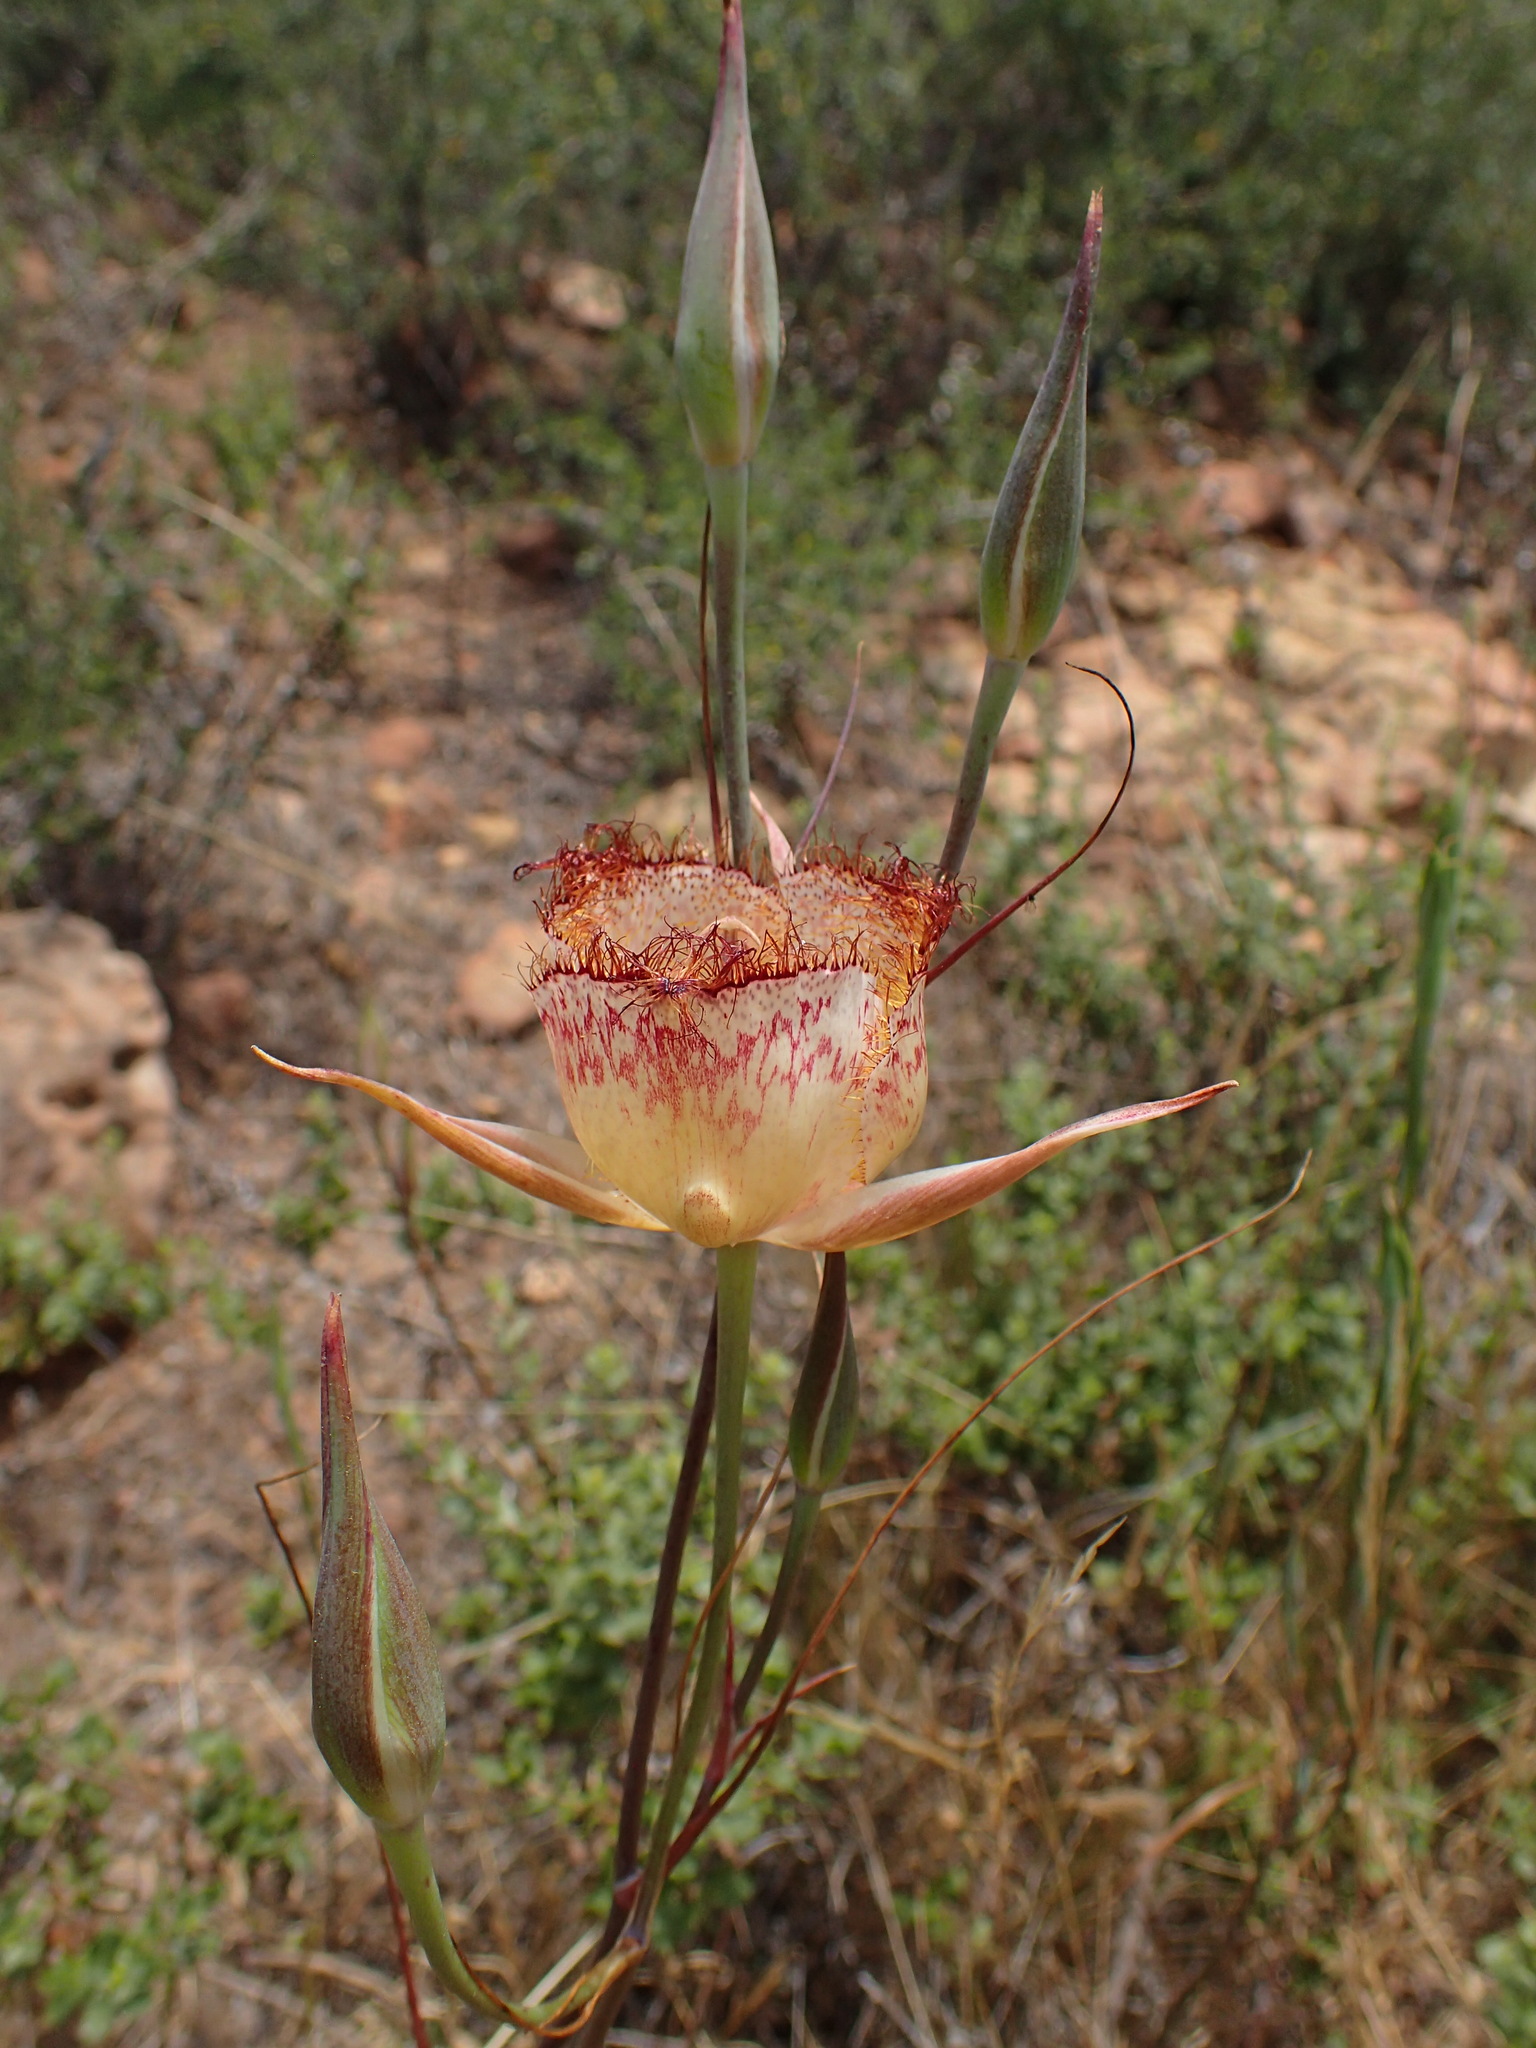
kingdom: Plantae
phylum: Tracheophyta
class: Liliopsida
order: Liliales
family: Liliaceae
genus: Calochortus
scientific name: Calochortus fimbriatus
